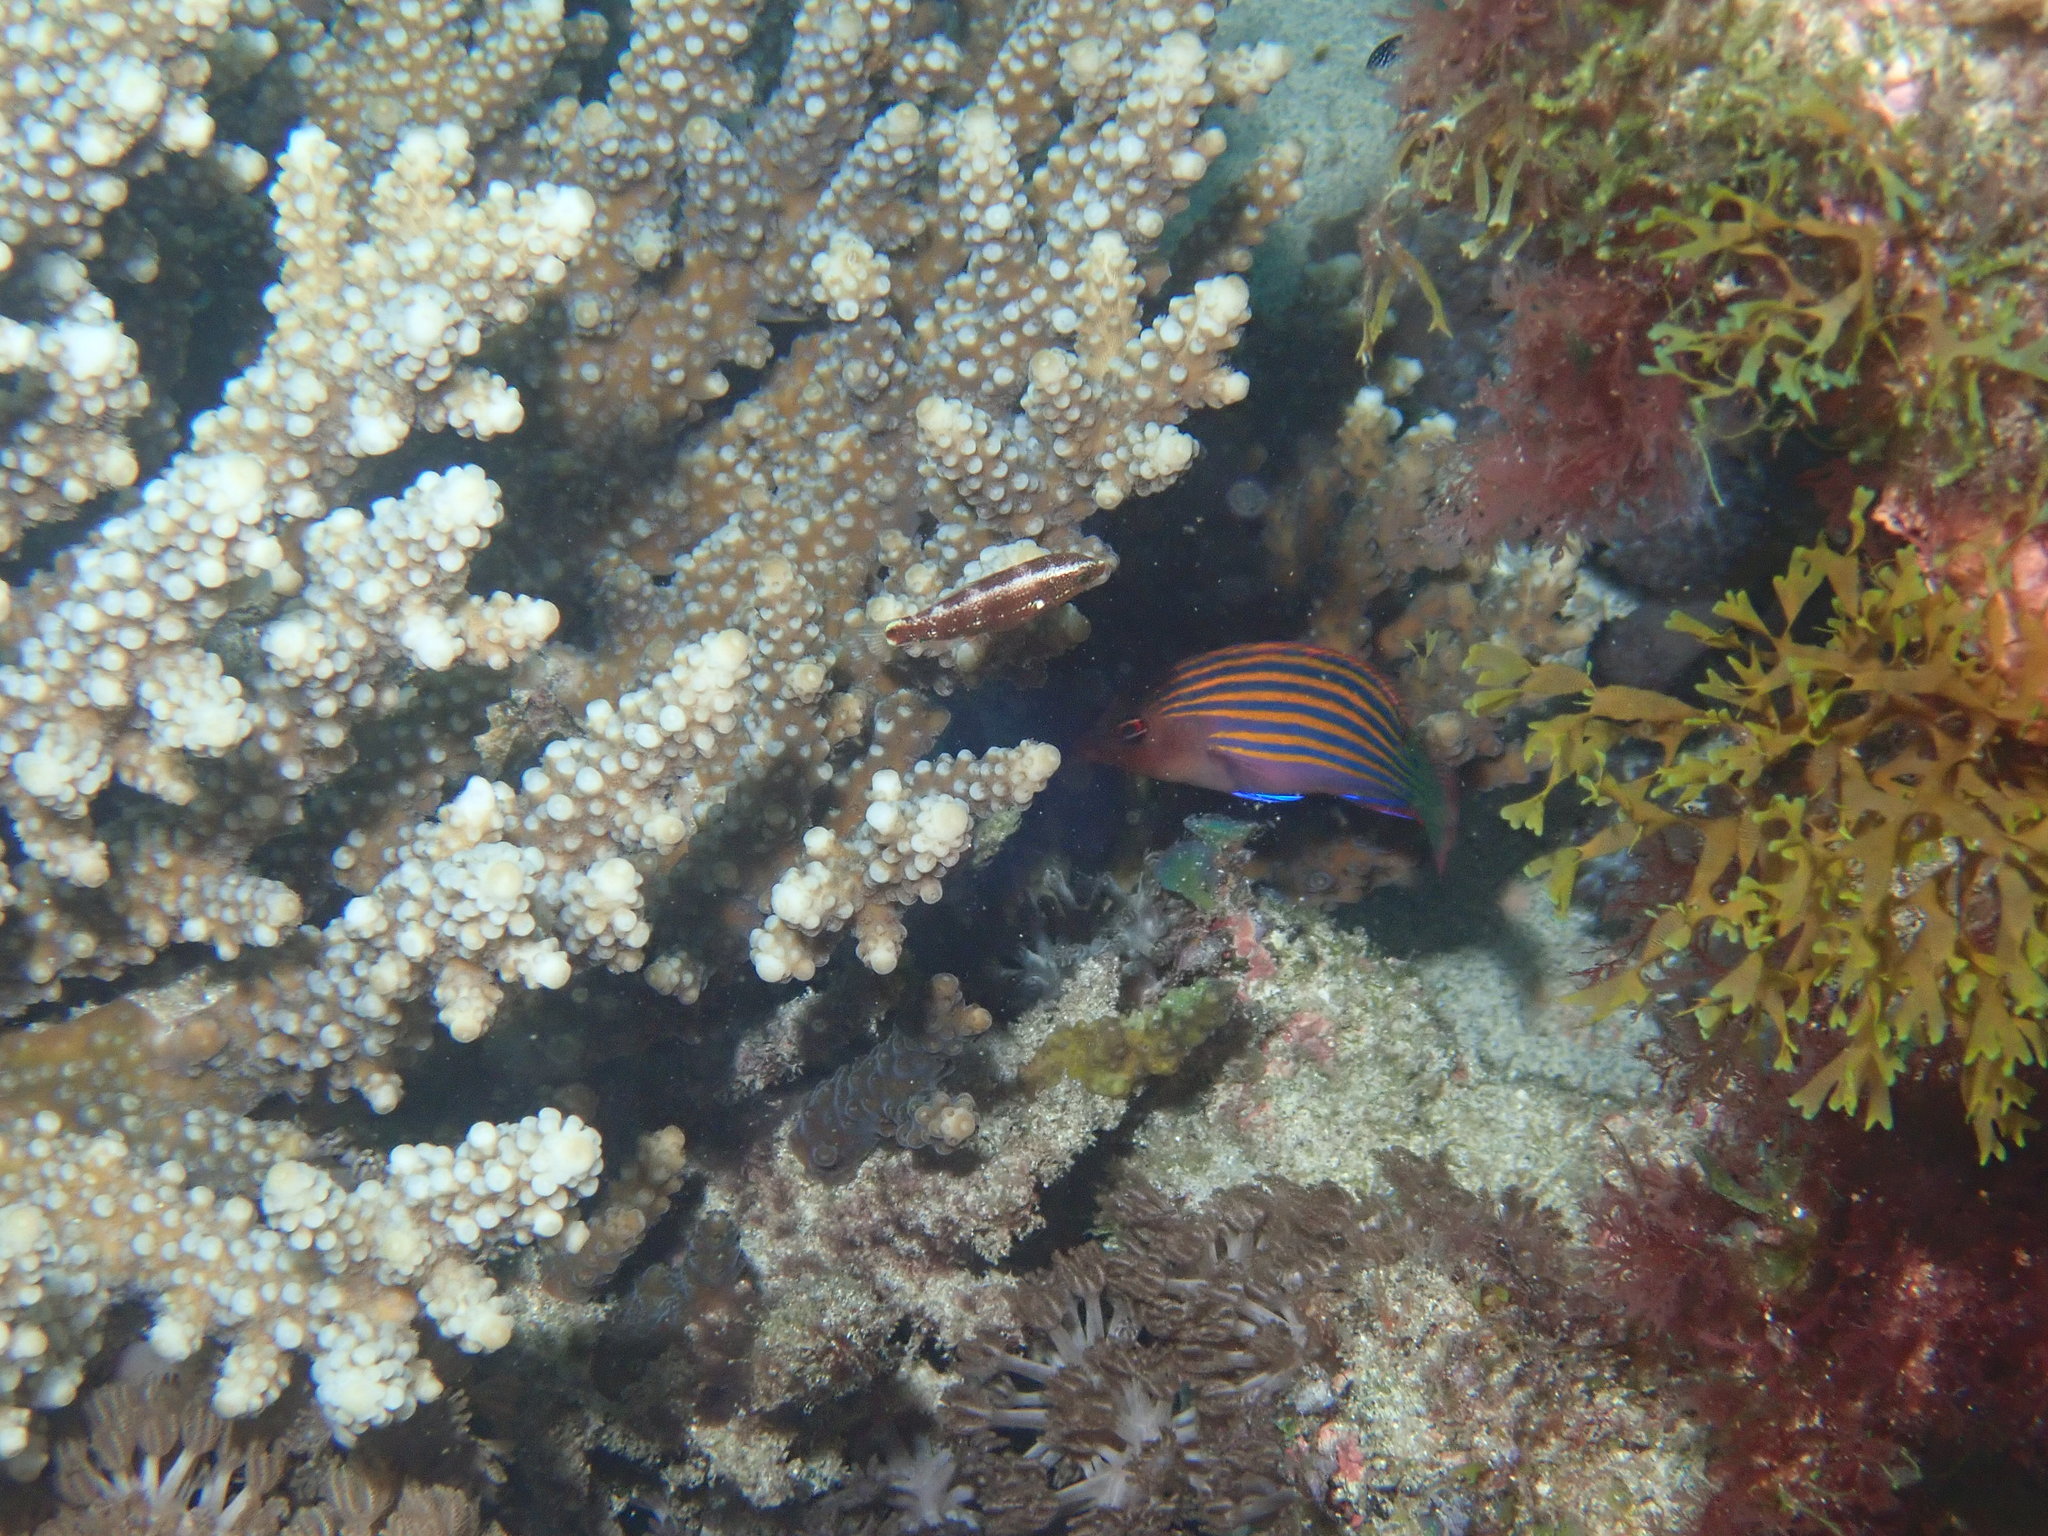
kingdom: Animalia
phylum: Chordata
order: Perciformes
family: Labridae
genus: Pseudocheilinus
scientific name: Pseudocheilinus hexataenia
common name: Sixline wrasse
